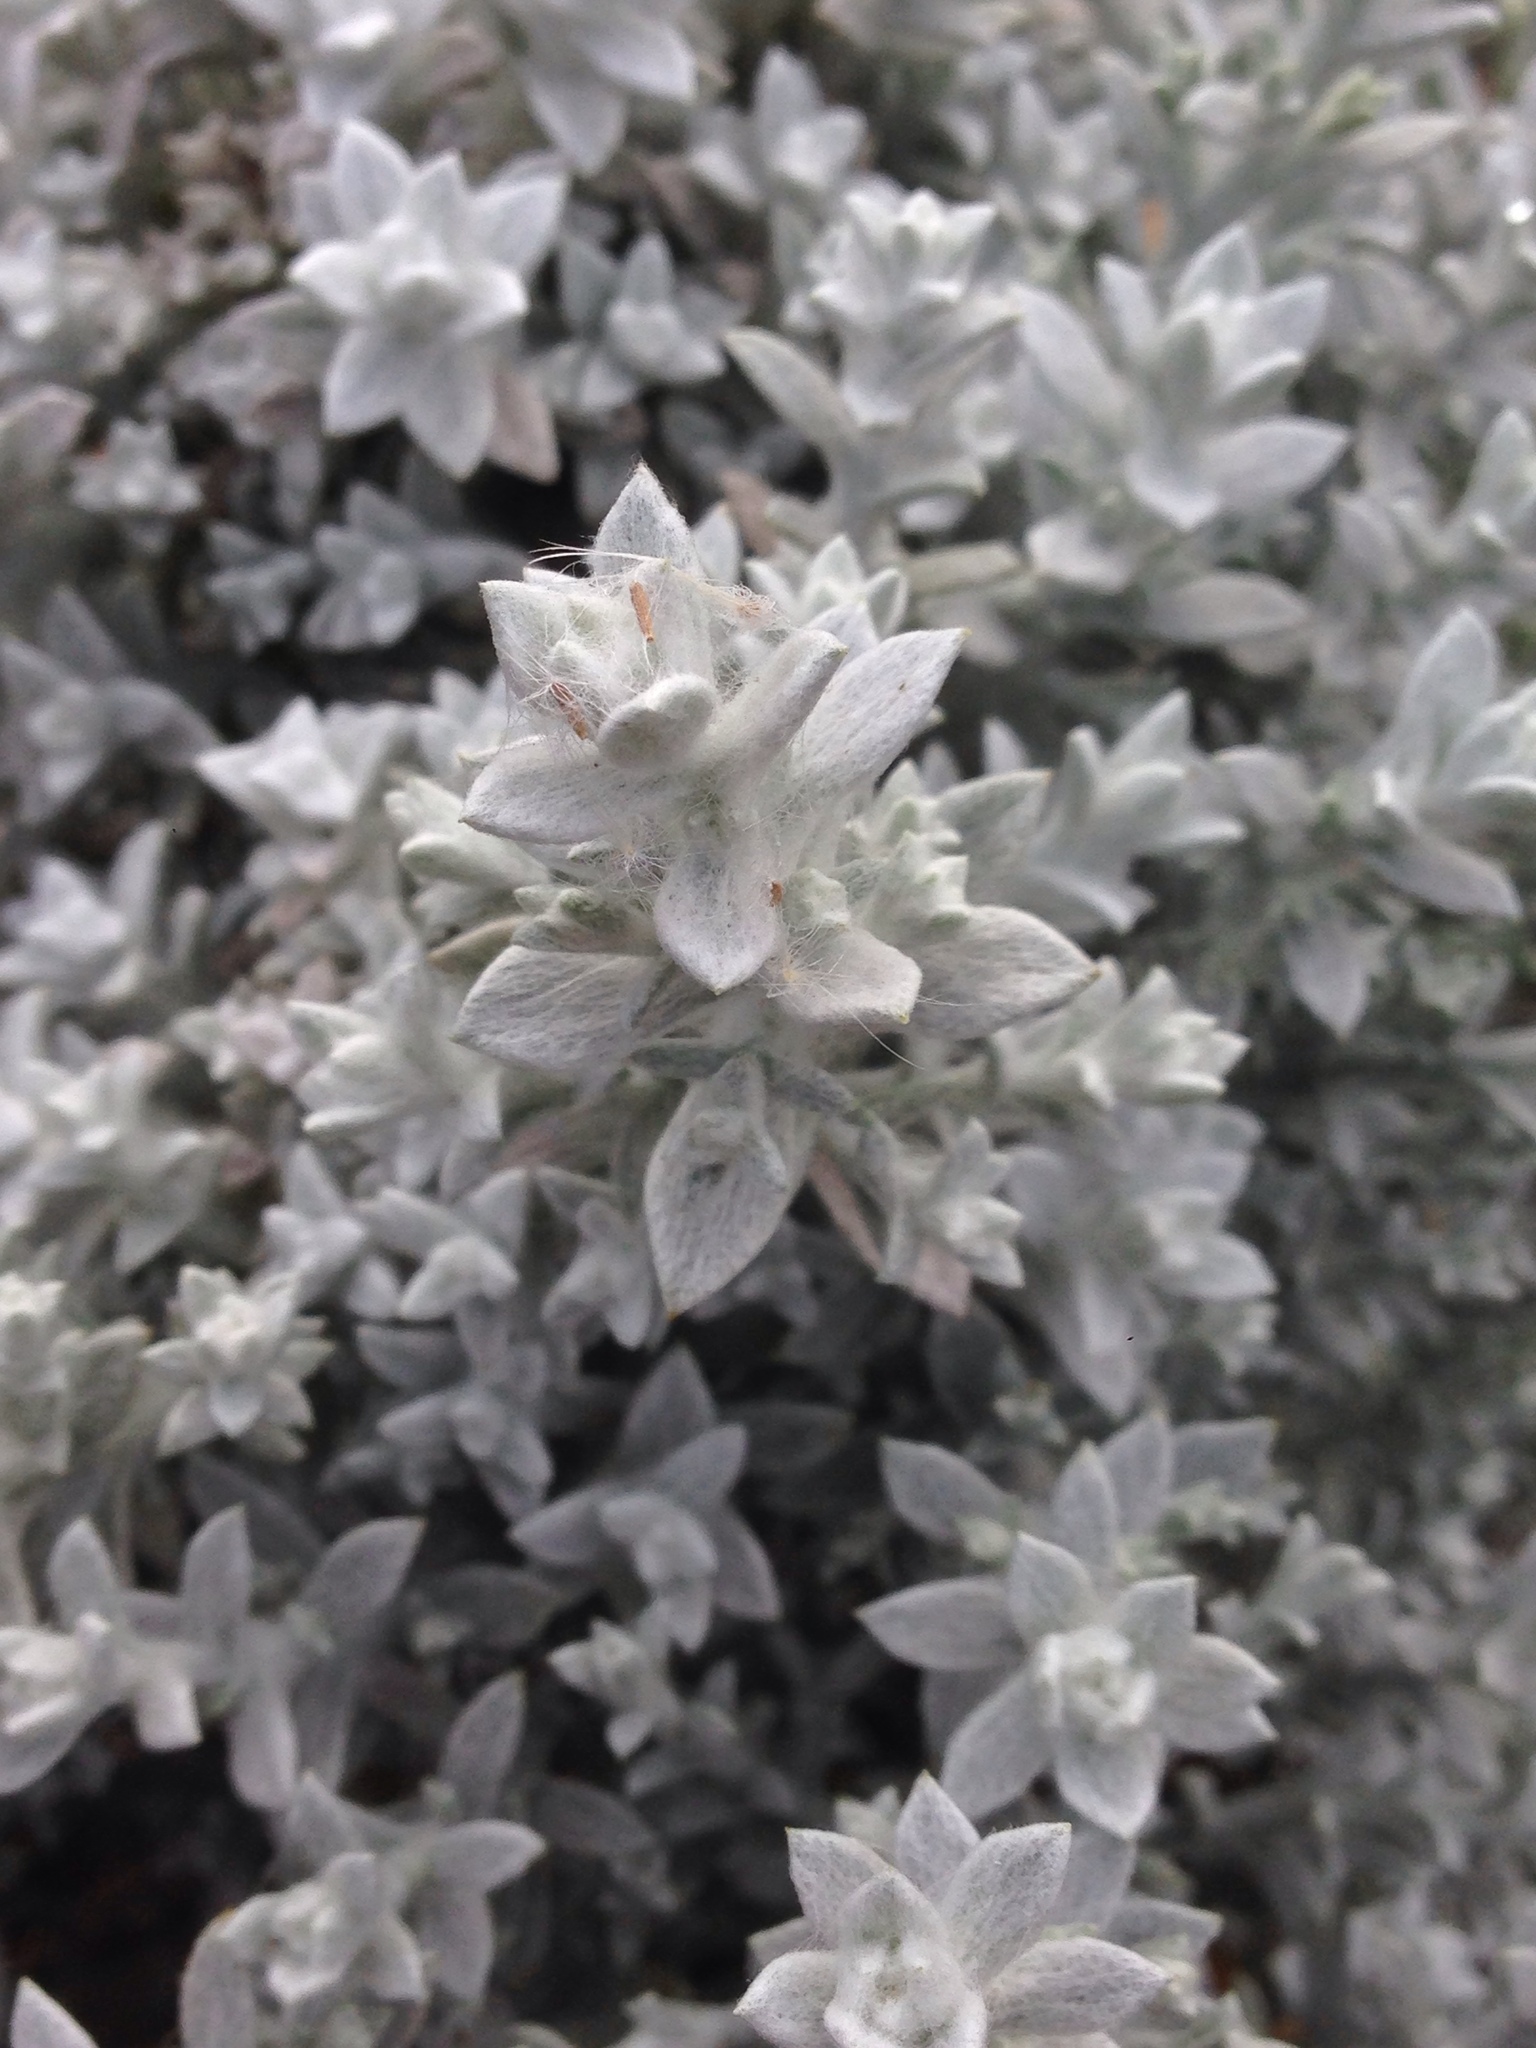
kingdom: Plantae
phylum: Tracheophyta
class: Magnoliopsida
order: Asterales
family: Asteraceae
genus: Lepidospartum
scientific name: Lepidospartum squamatum
